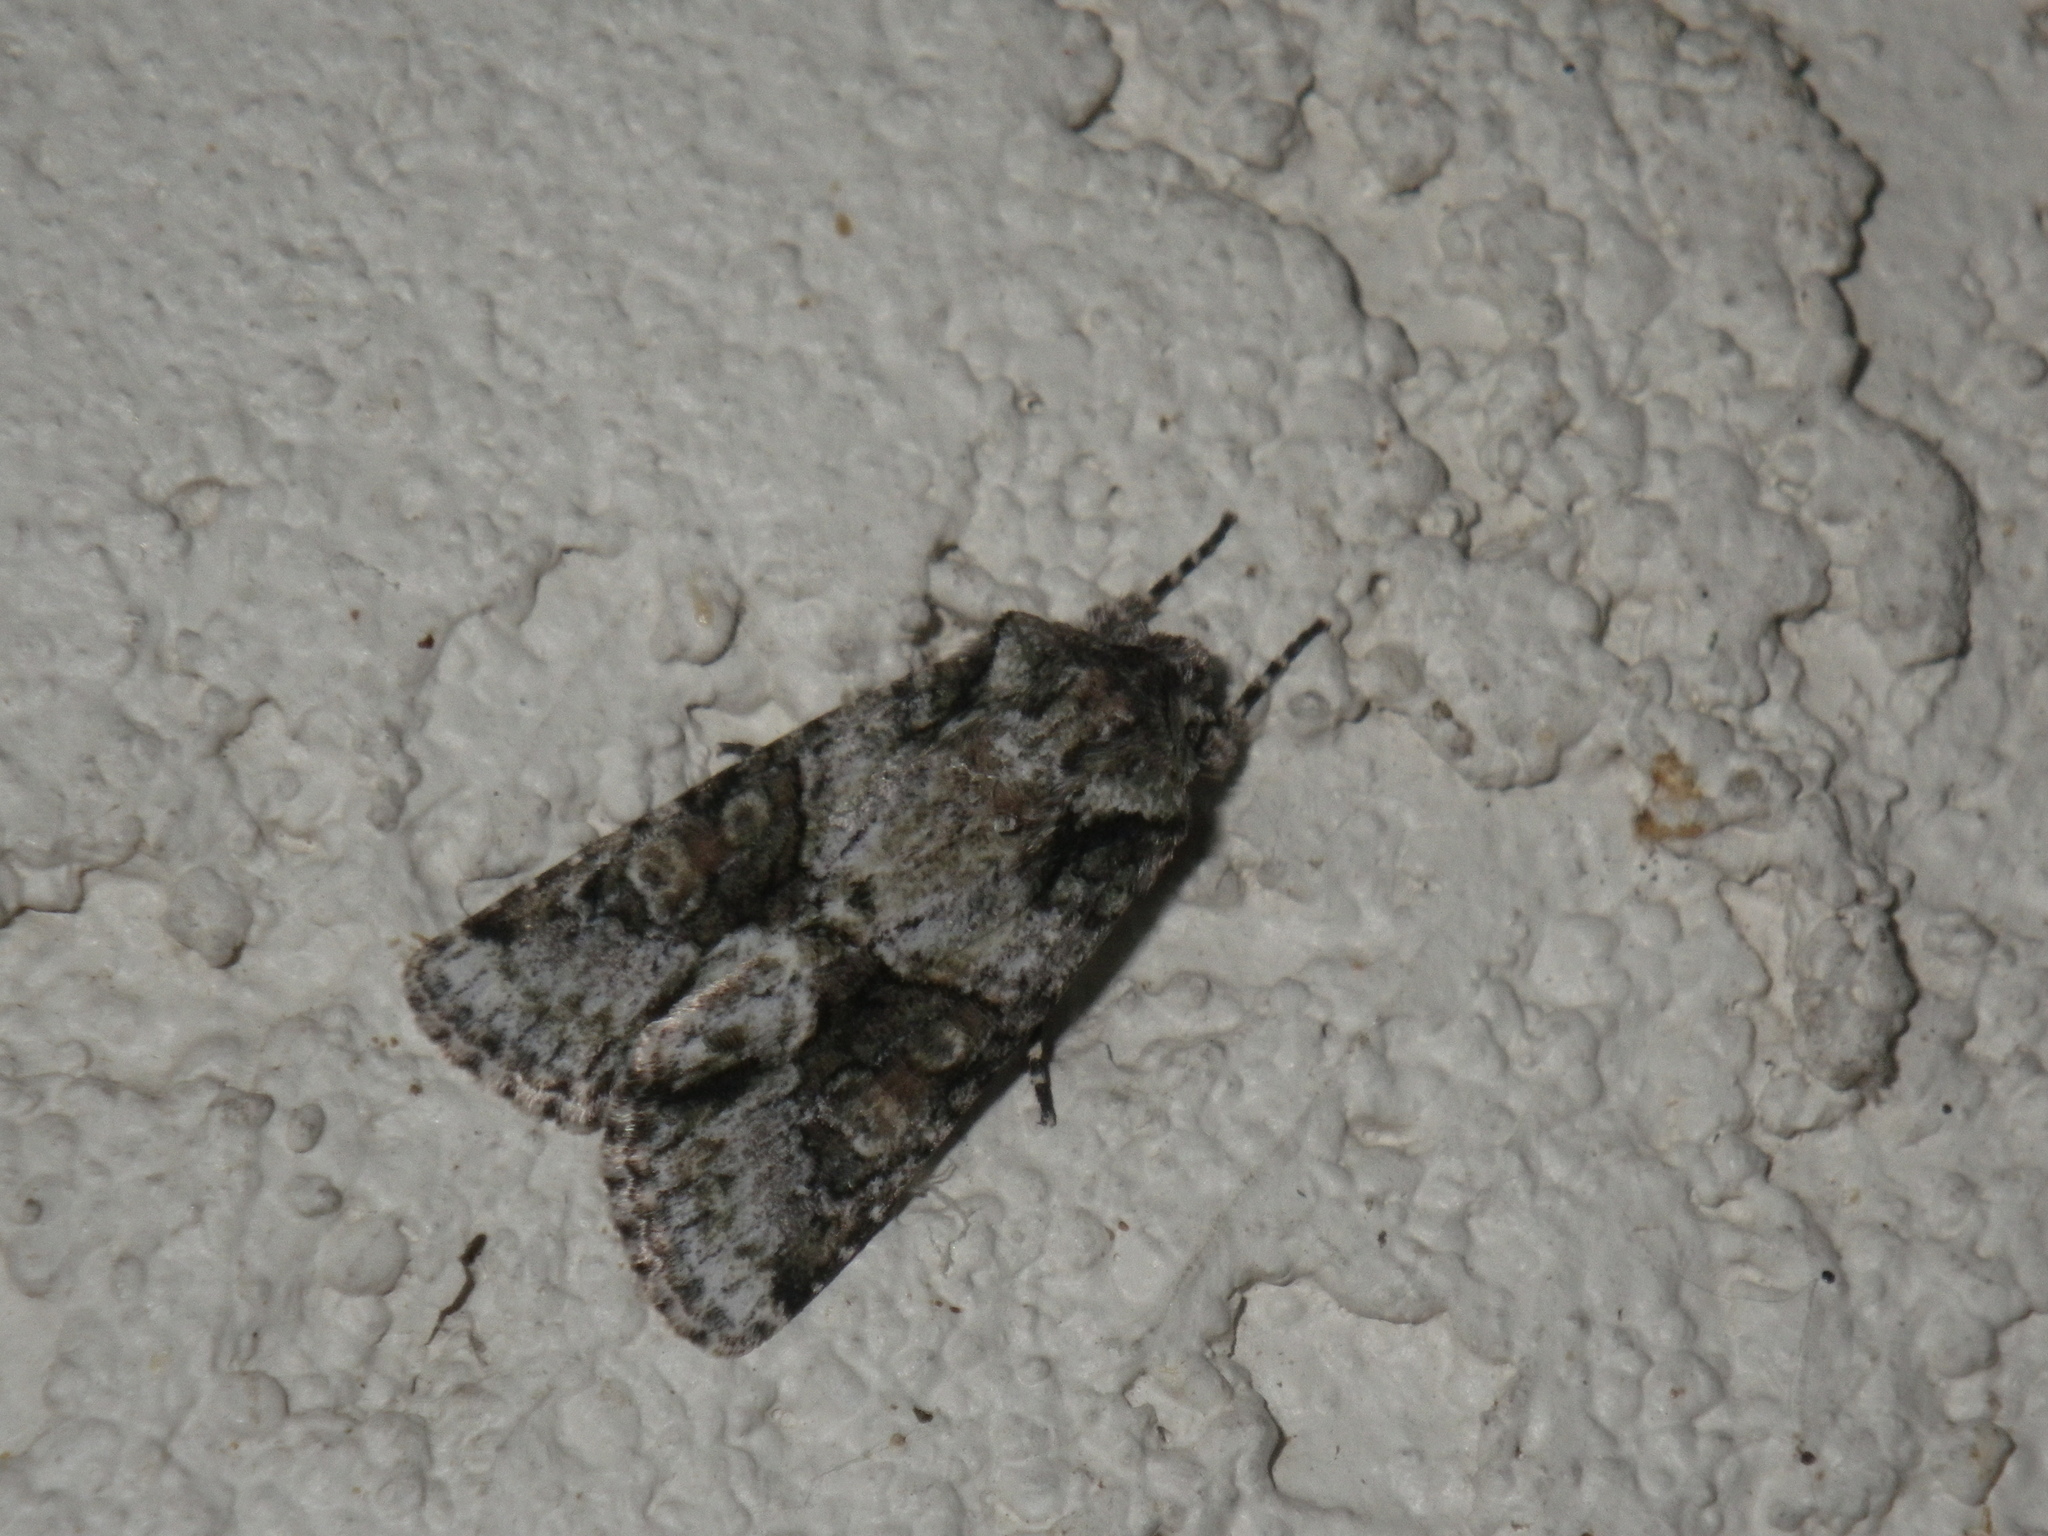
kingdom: Animalia
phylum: Arthropoda
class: Insecta
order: Lepidoptera
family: Noctuidae
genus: Lacinipolia
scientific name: Lacinipolia quadrilineata
